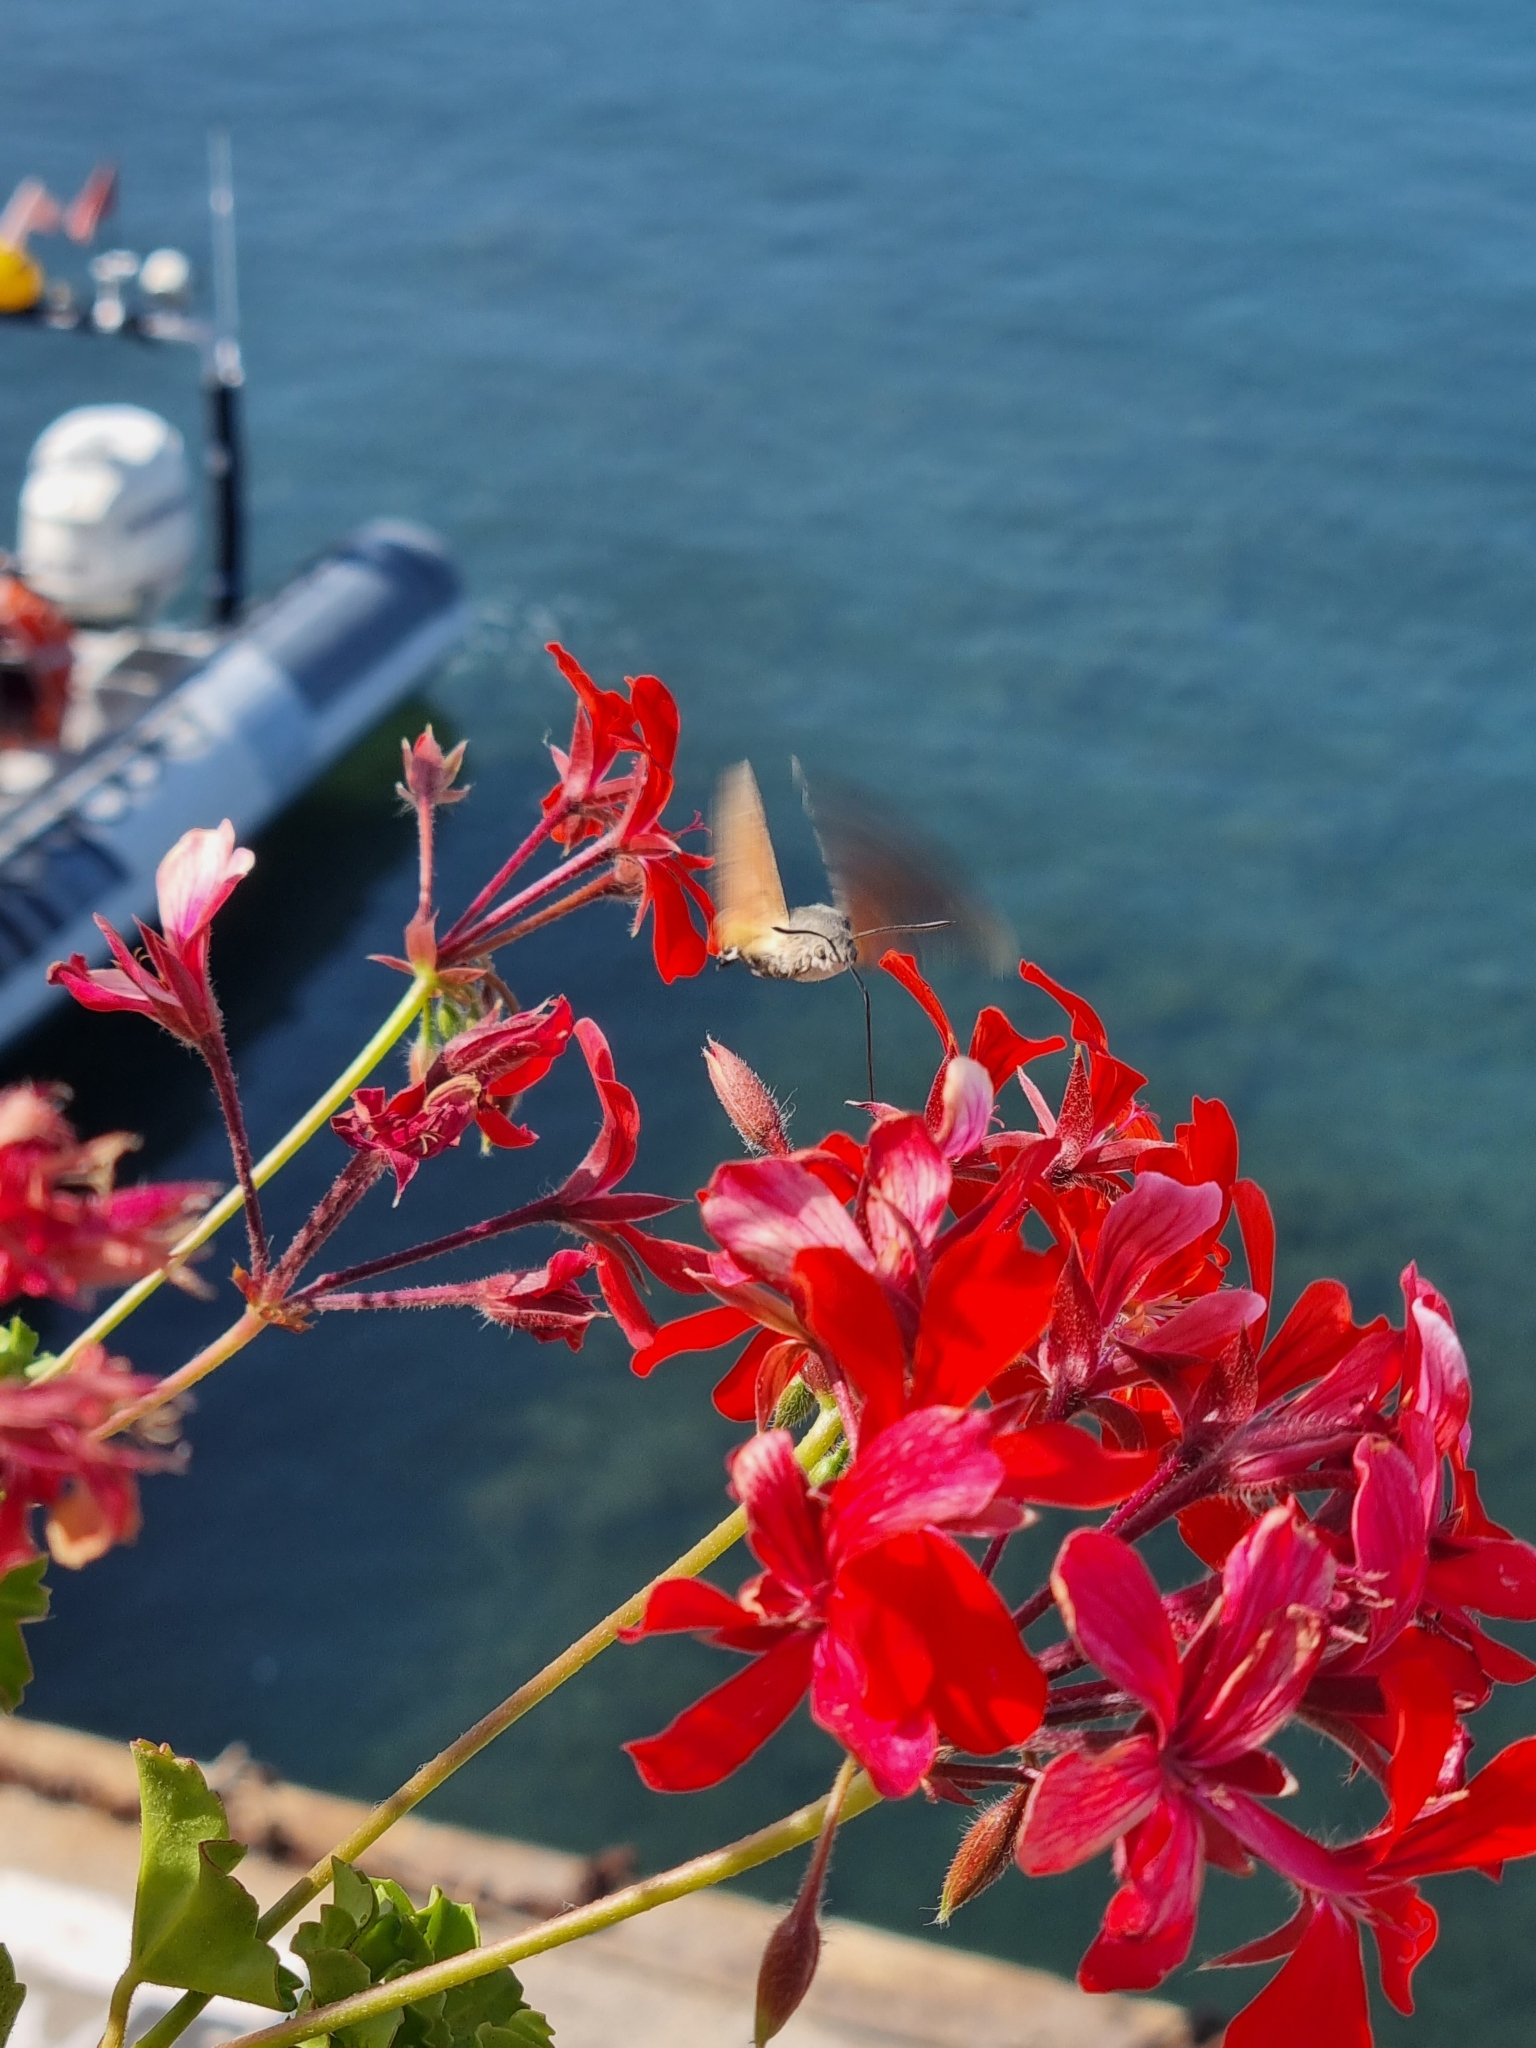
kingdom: Animalia
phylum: Arthropoda
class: Insecta
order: Lepidoptera
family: Sphingidae
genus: Macroglossum
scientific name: Macroglossum stellatarum
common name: Humming-bird hawk-moth
